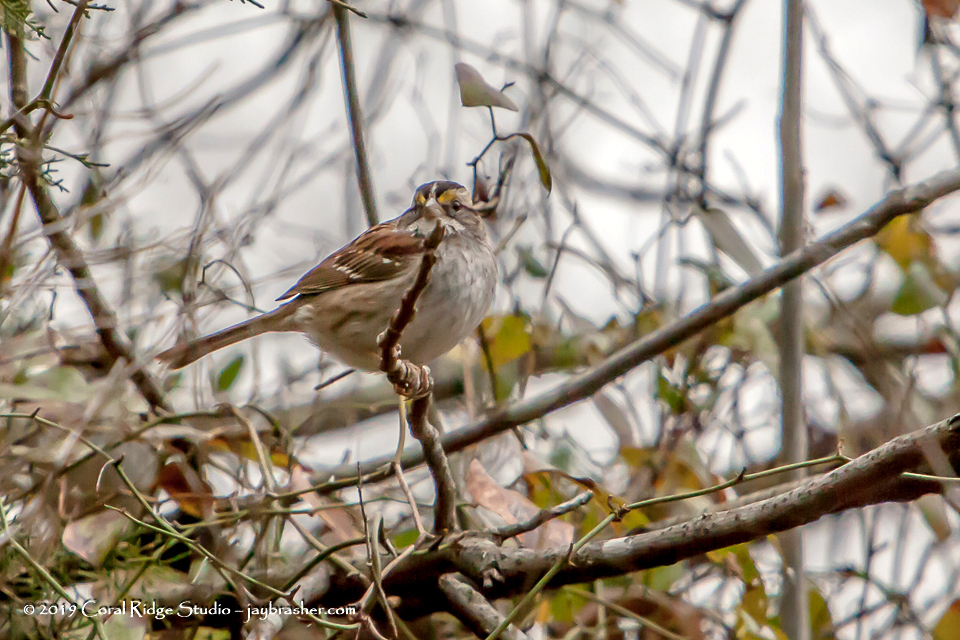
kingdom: Animalia
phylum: Chordata
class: Aves
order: Passeriformes
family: Passerellidae
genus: Zonotrichia
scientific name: Zonotrichia albicollis
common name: White-throated sparrow
